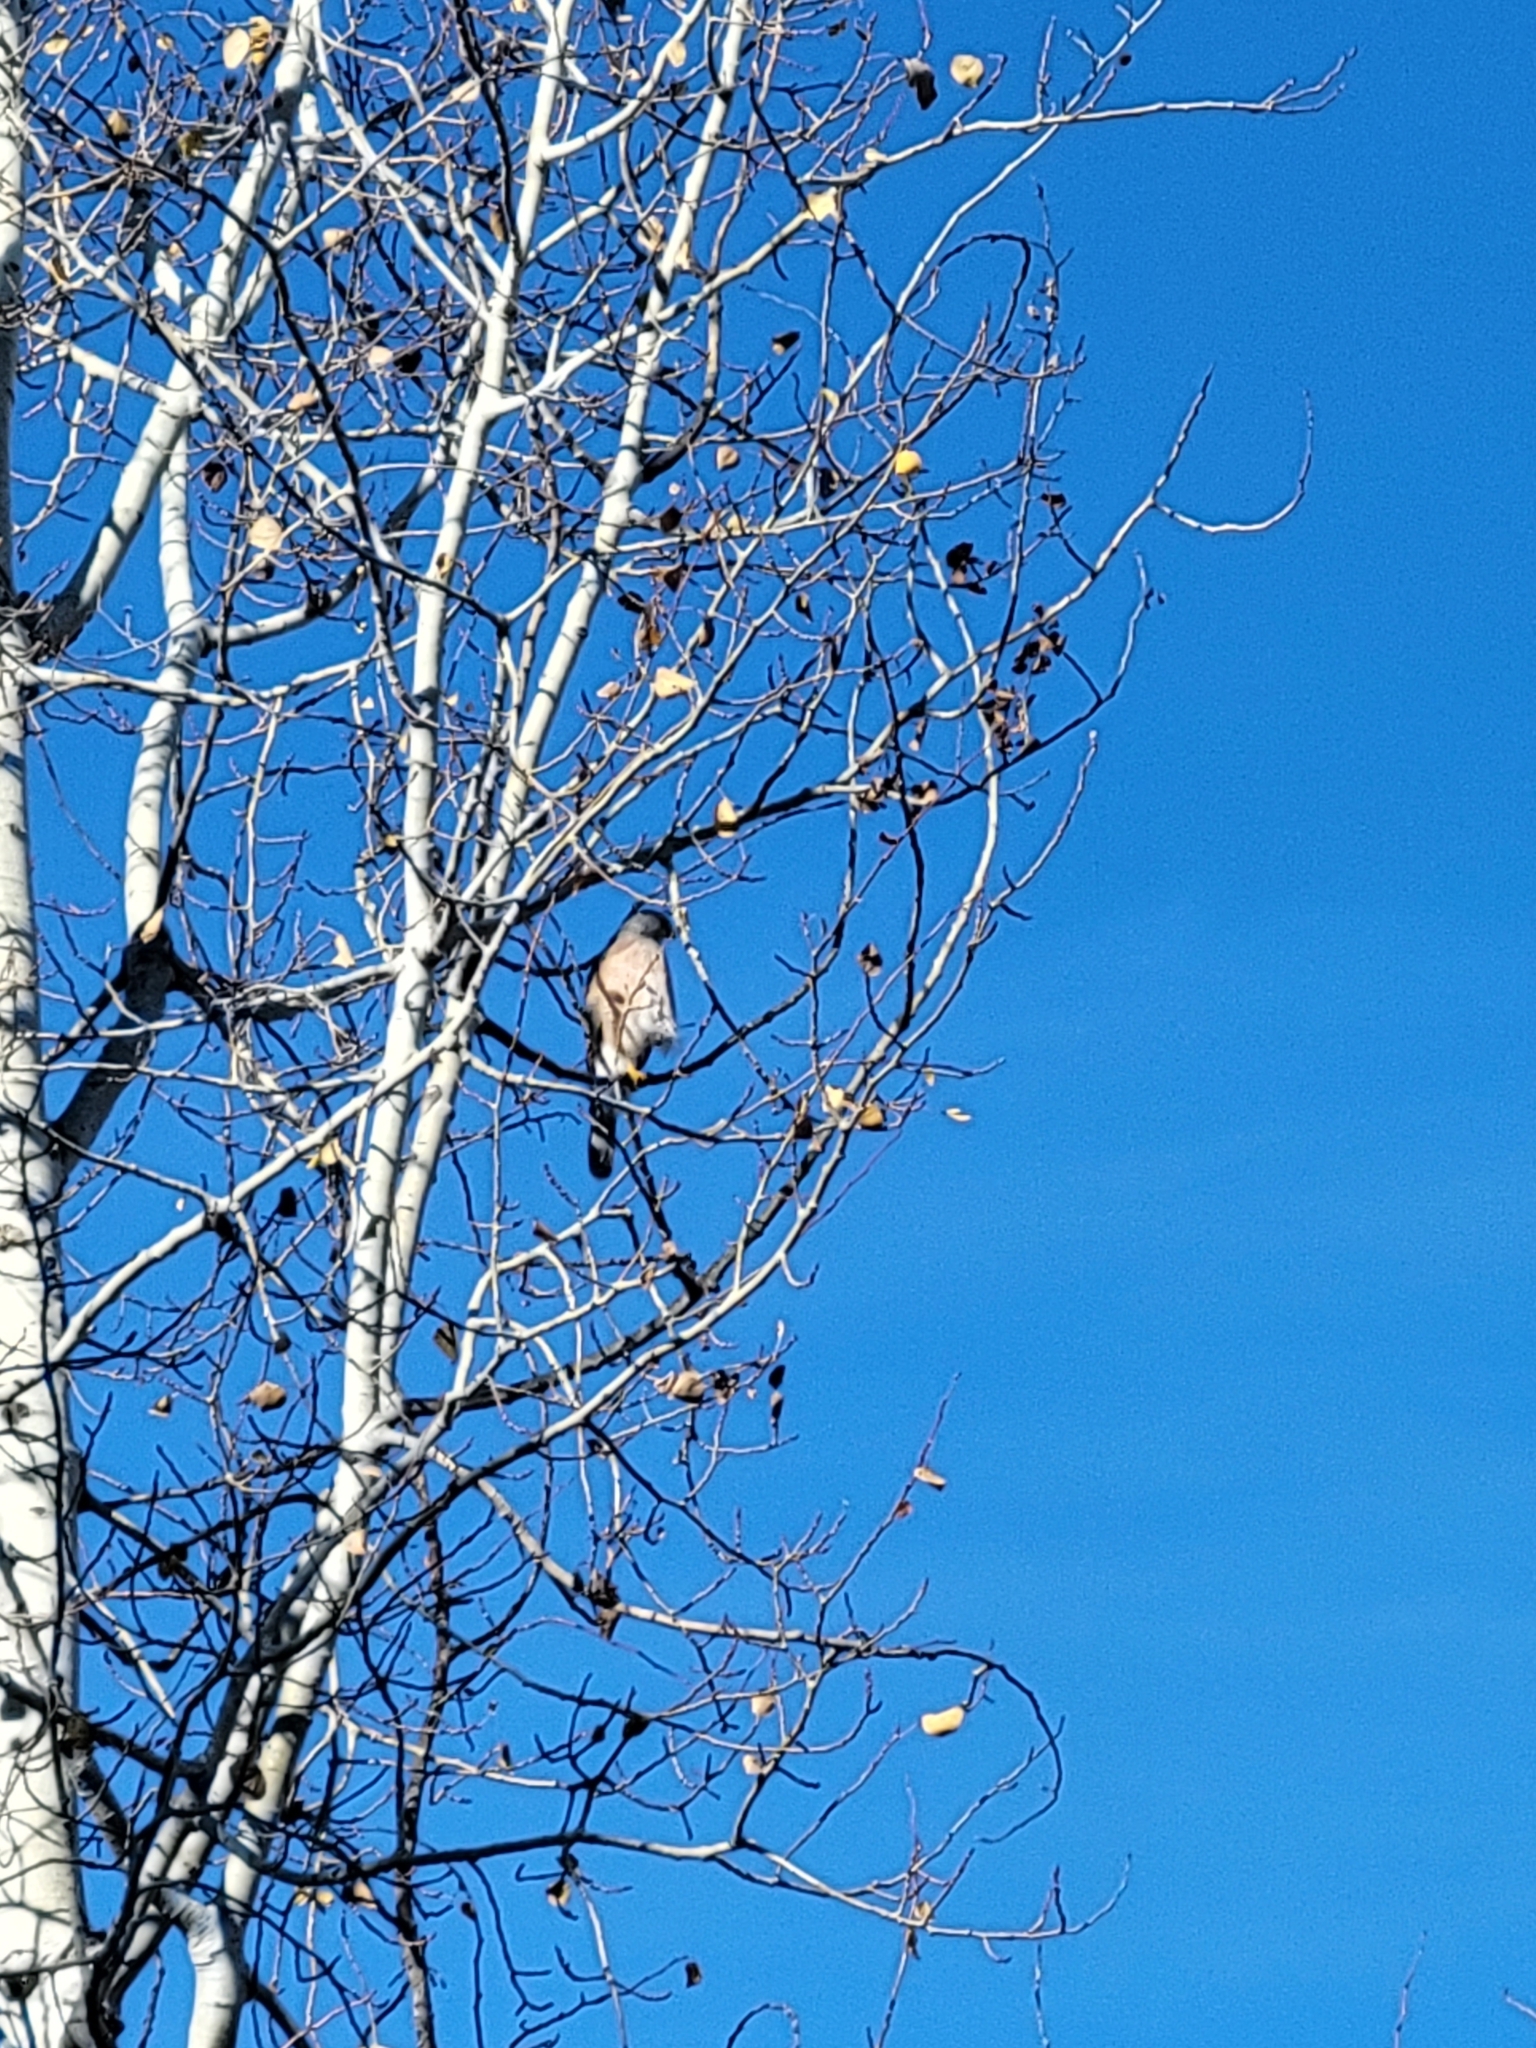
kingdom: Animalia
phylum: Chordata
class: Aves
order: Accipitriformes
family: Accipitridae
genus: Accipiter
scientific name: Accipiter cooperii
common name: Cooper's hawk
